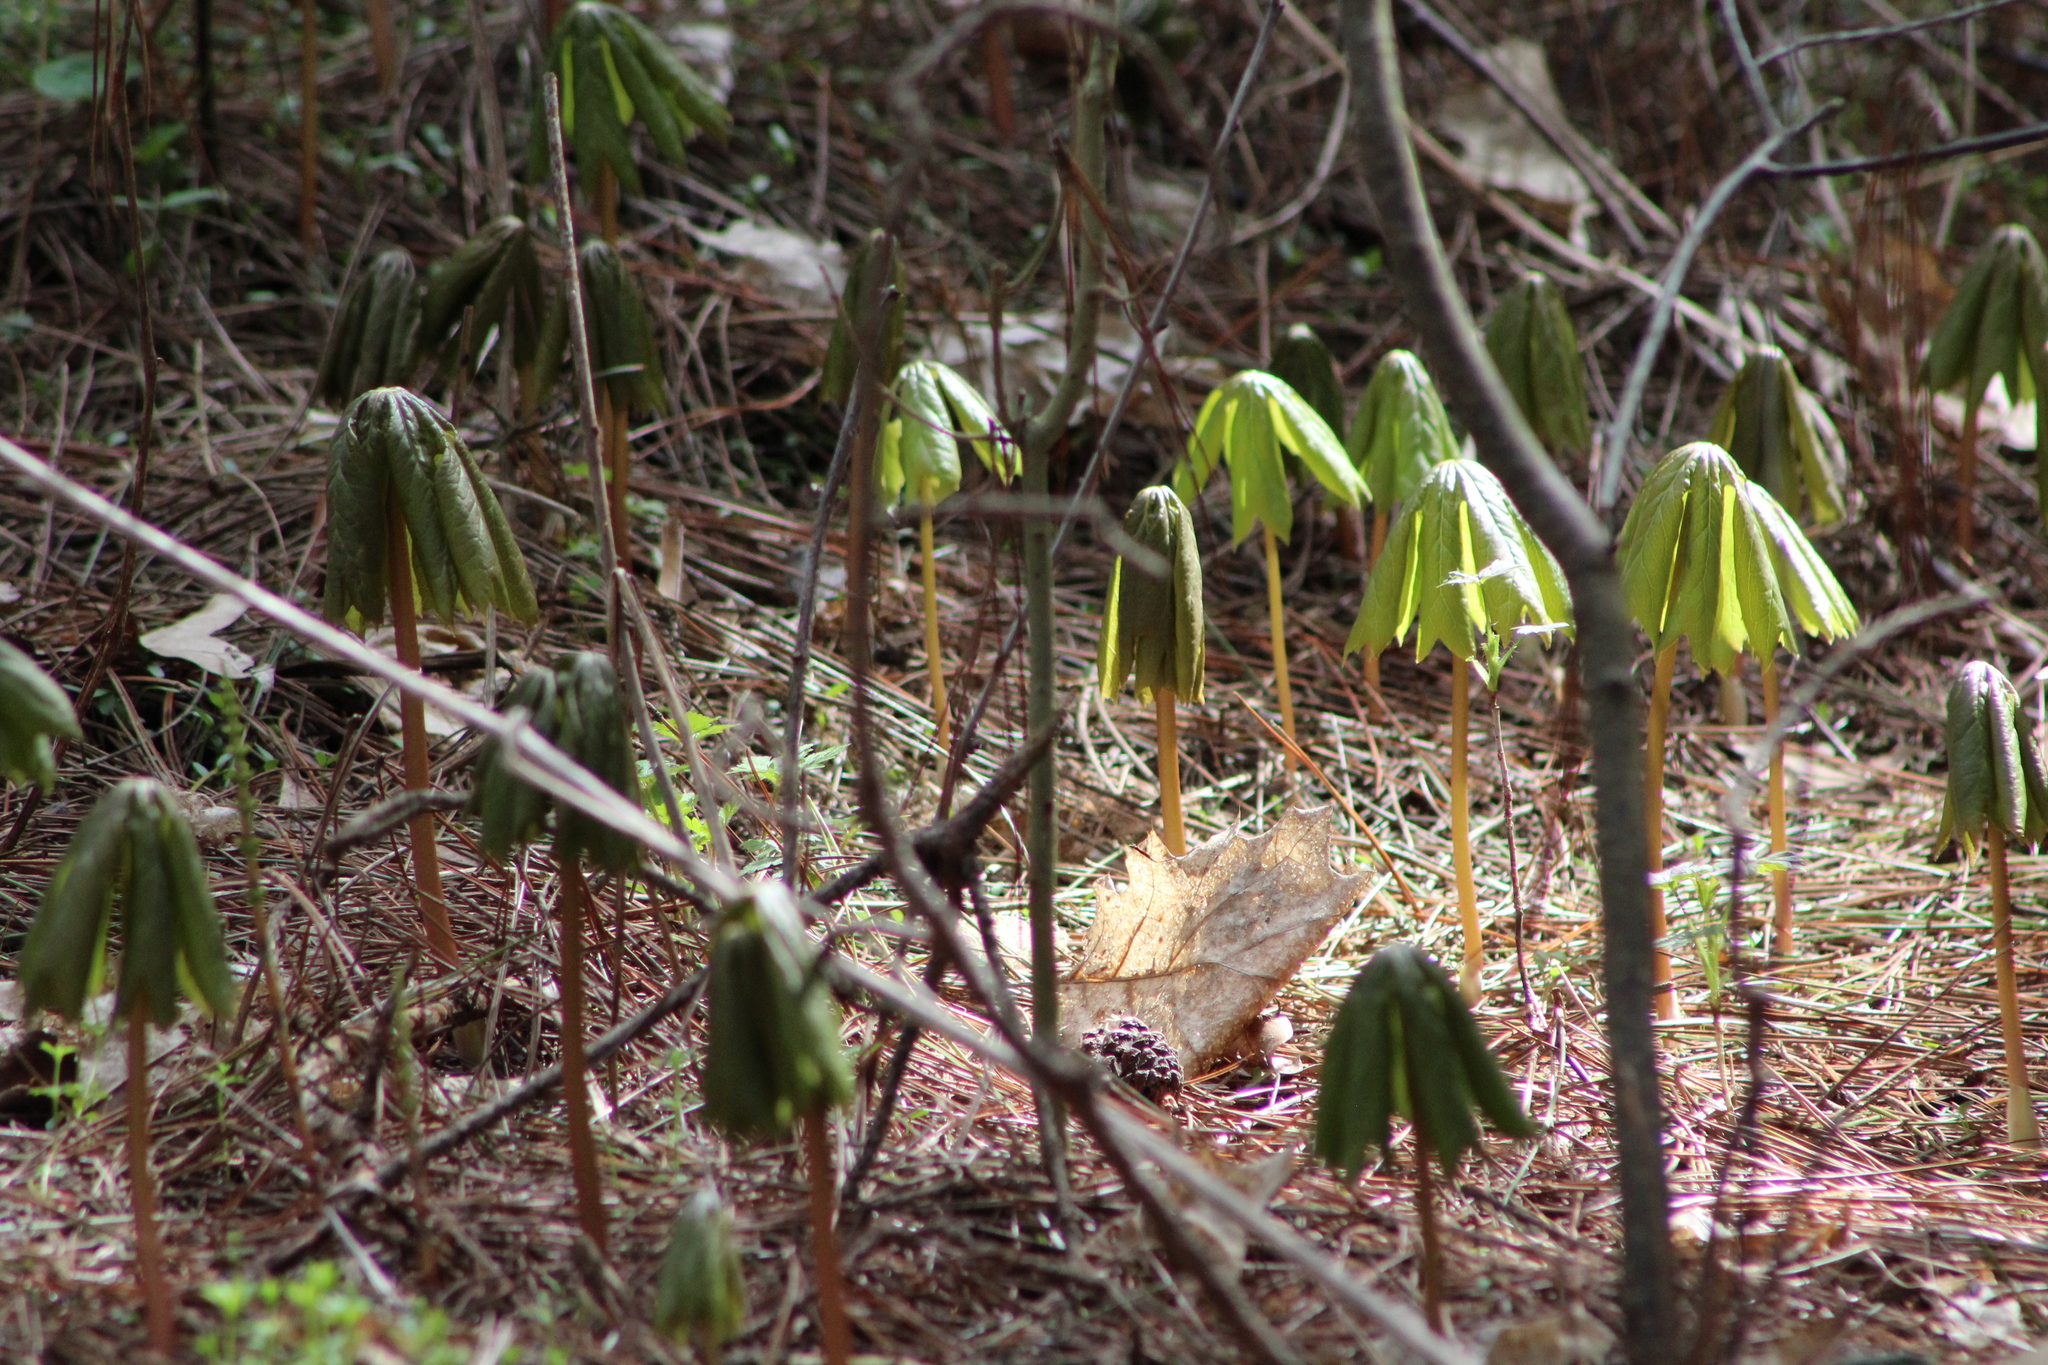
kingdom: Plantae
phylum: Tracheophyta
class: Magnoliopsida
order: Ranunculales
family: Berberidaceae
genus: Podophyllum
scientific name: Podophyllum peltatum
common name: Wild mandrake
